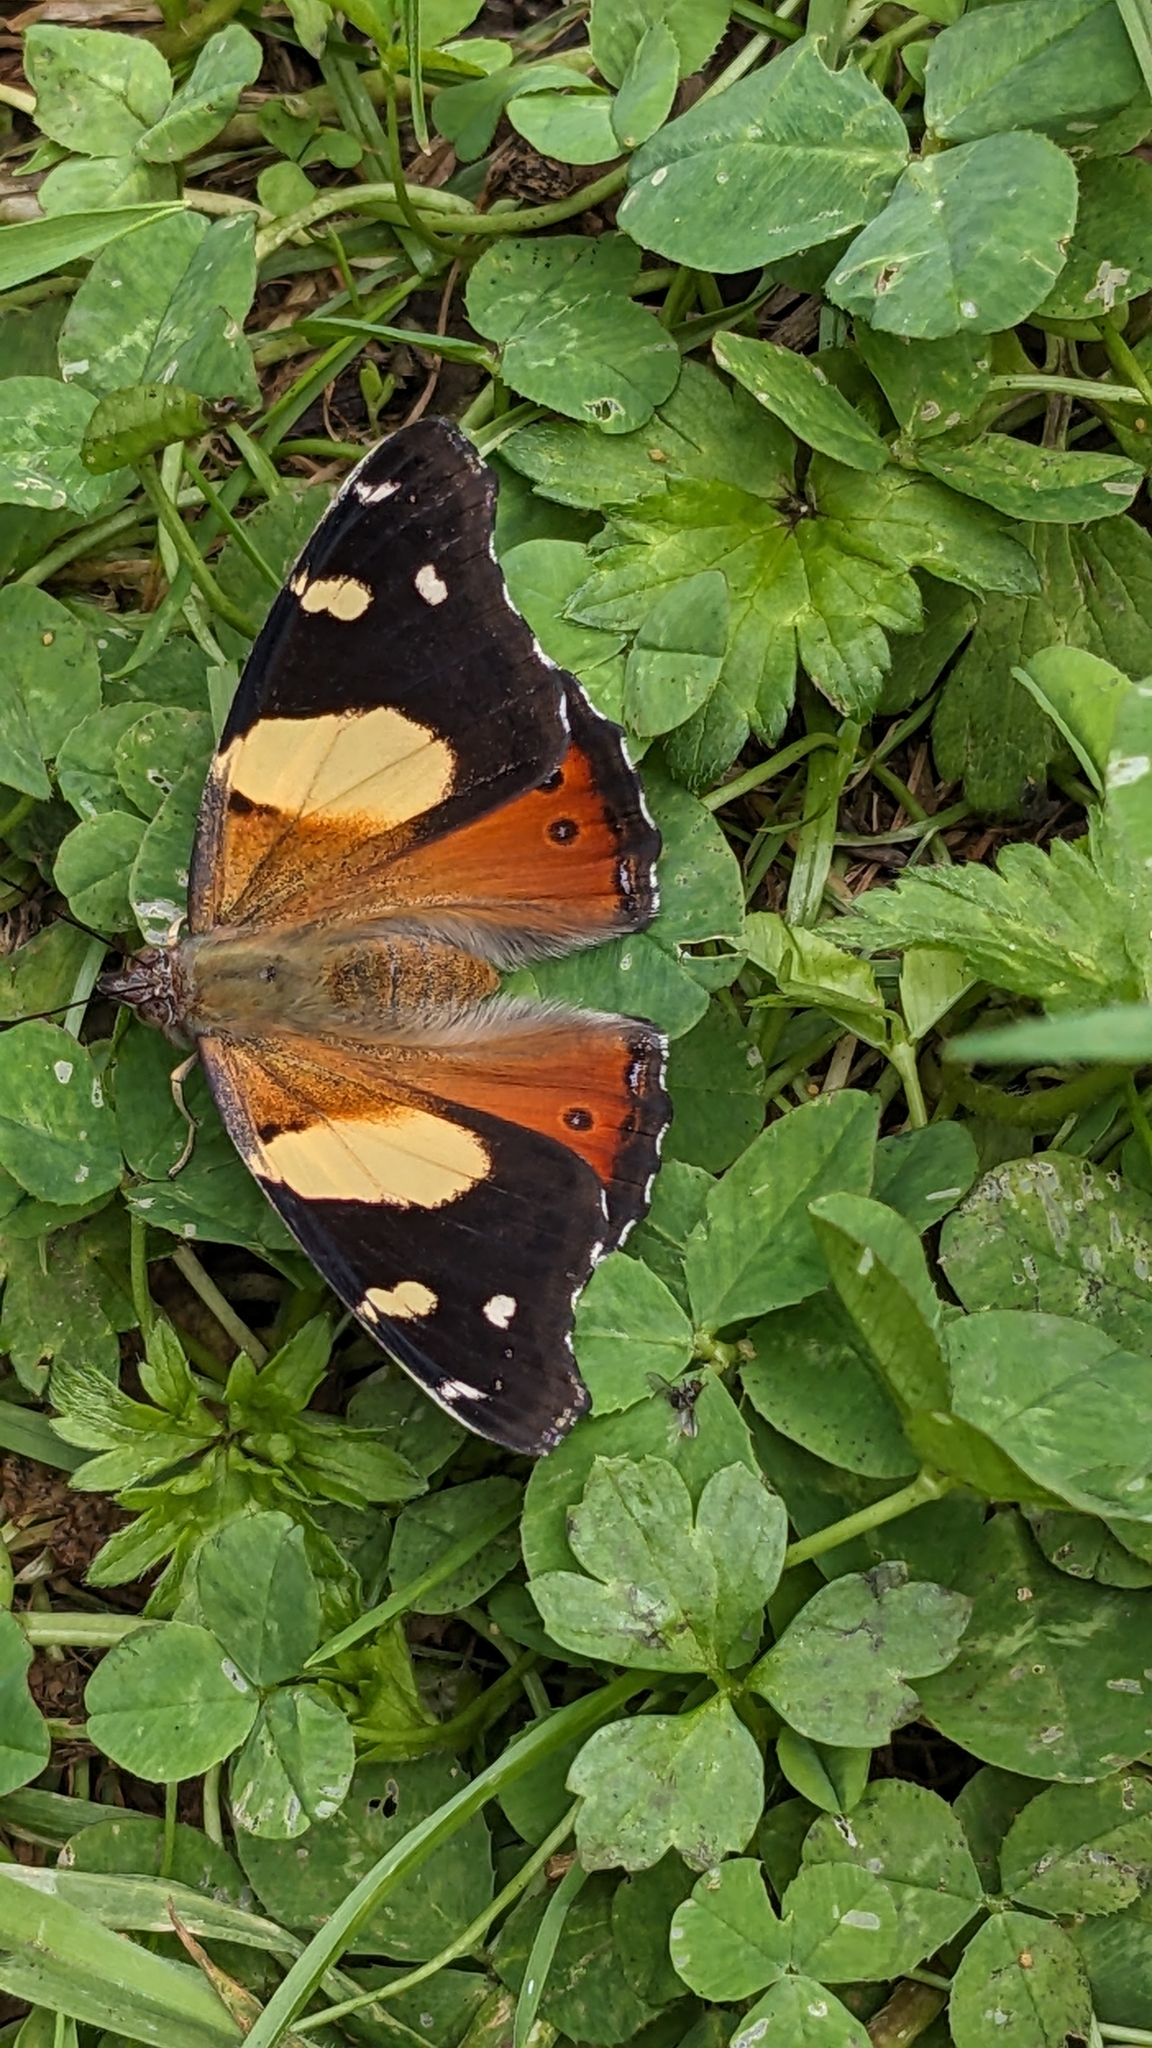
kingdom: Animalia
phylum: Arthropoda
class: Insecta
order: Lepidoptera
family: Nymphalidae
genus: Vanessa
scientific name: Vanessa itea
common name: Yellow admiral
